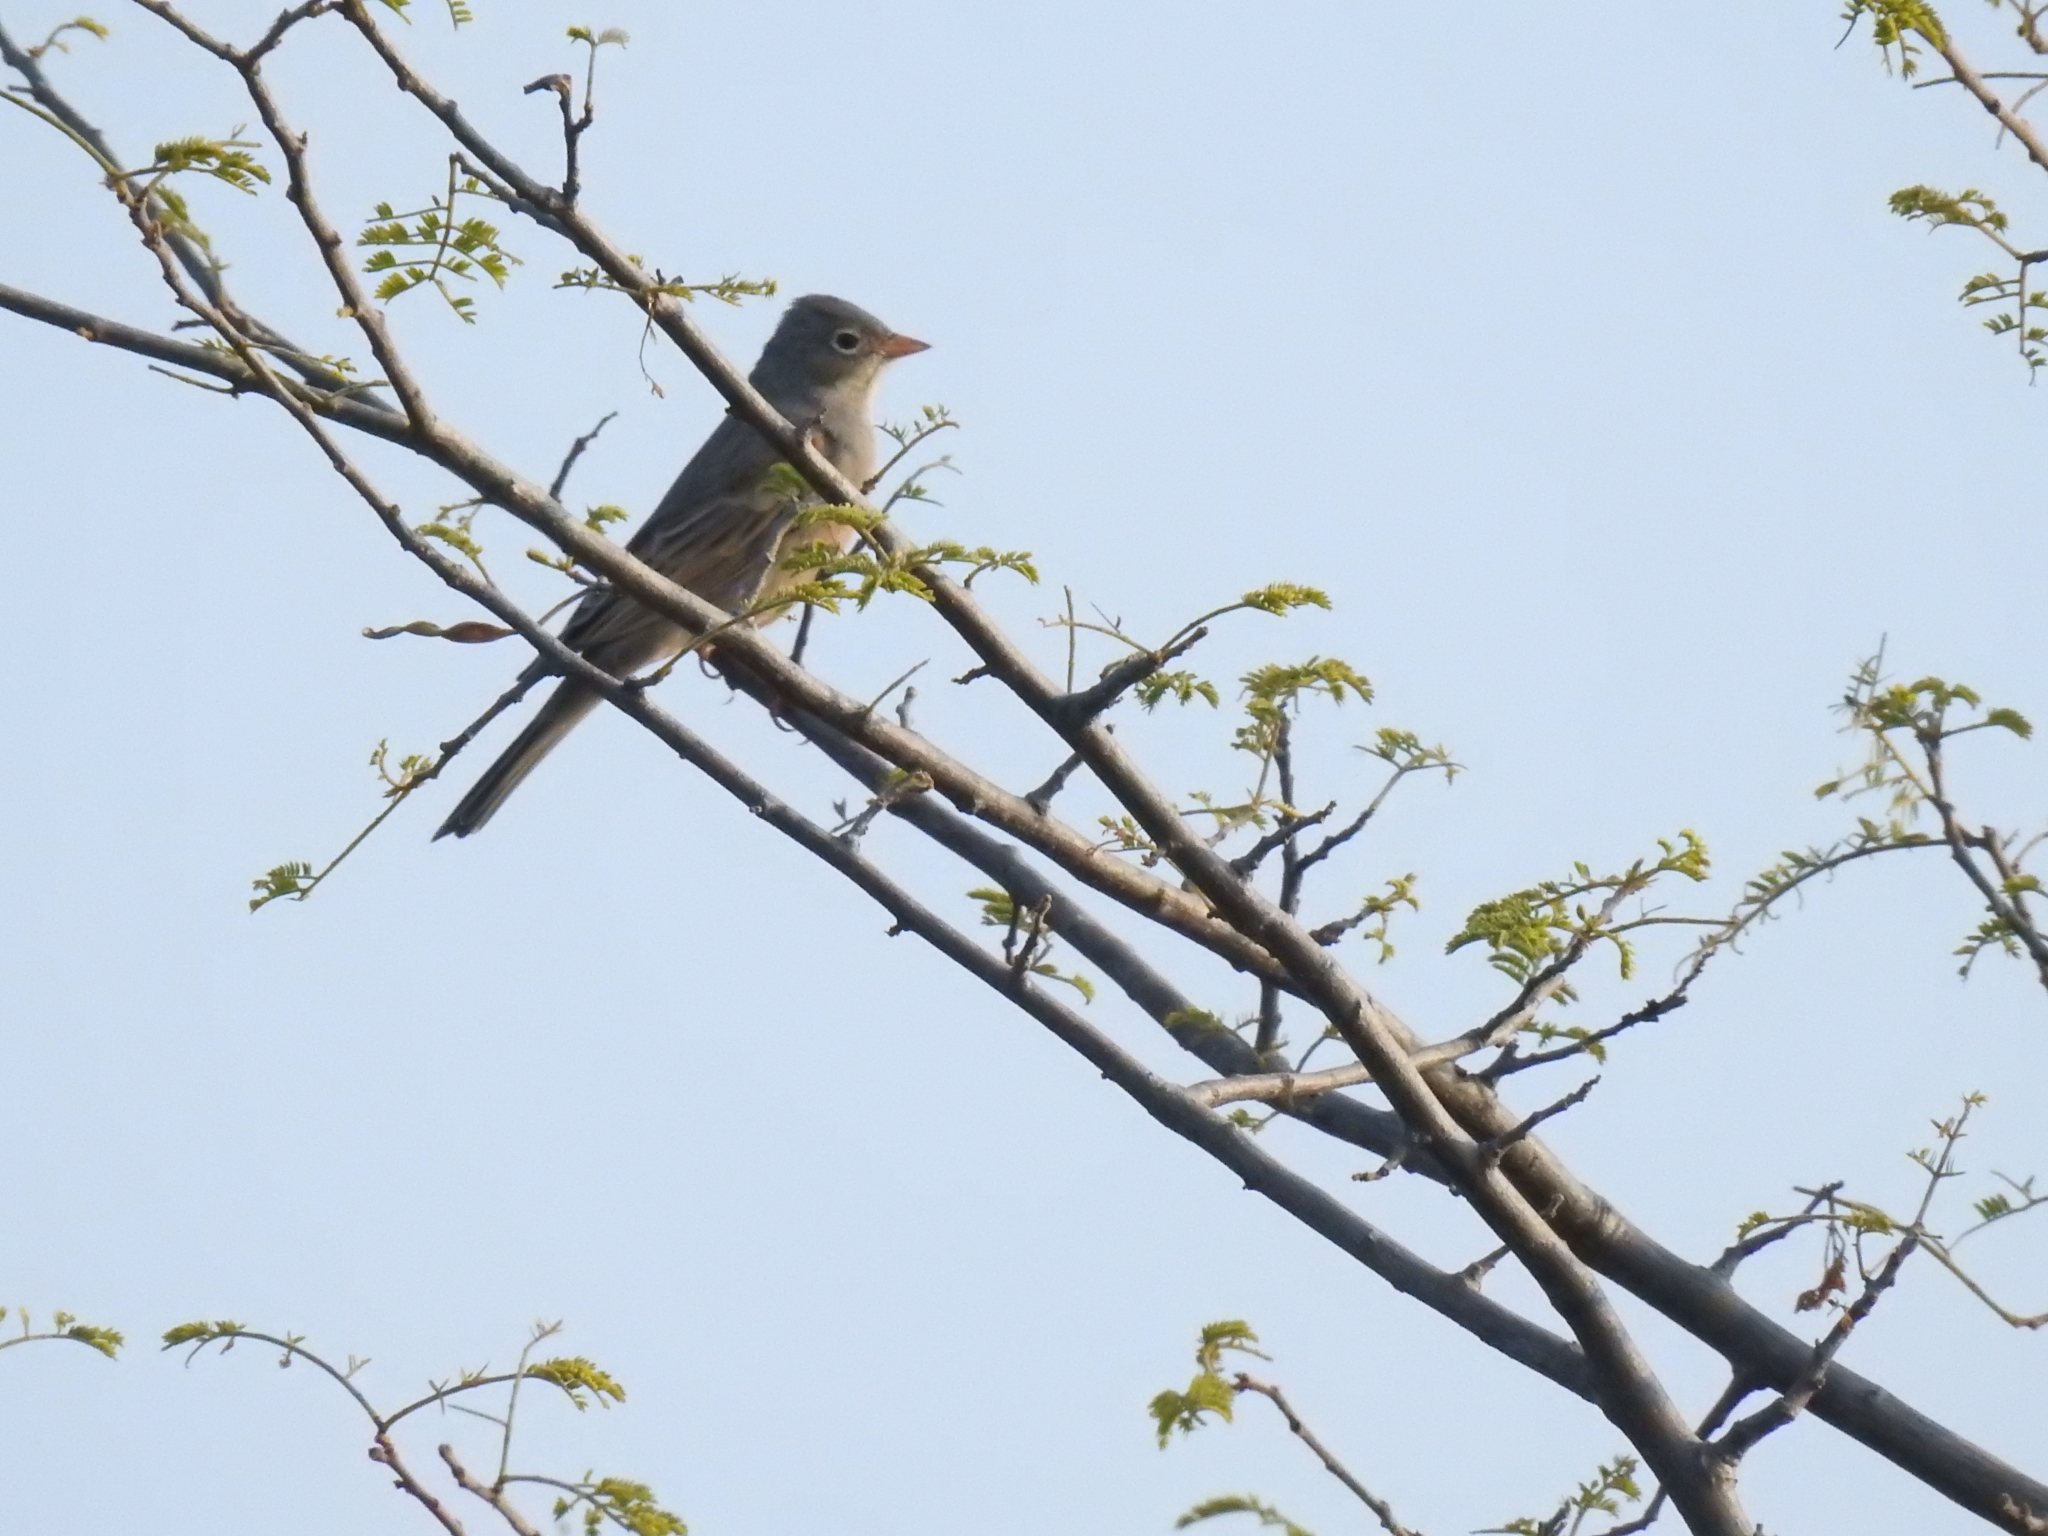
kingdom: Animalia
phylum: Chordata
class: Aves
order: Passeriformes
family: Emberizidae
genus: Emberiza
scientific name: Emberiza buchanani
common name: Grey-necked bunting
